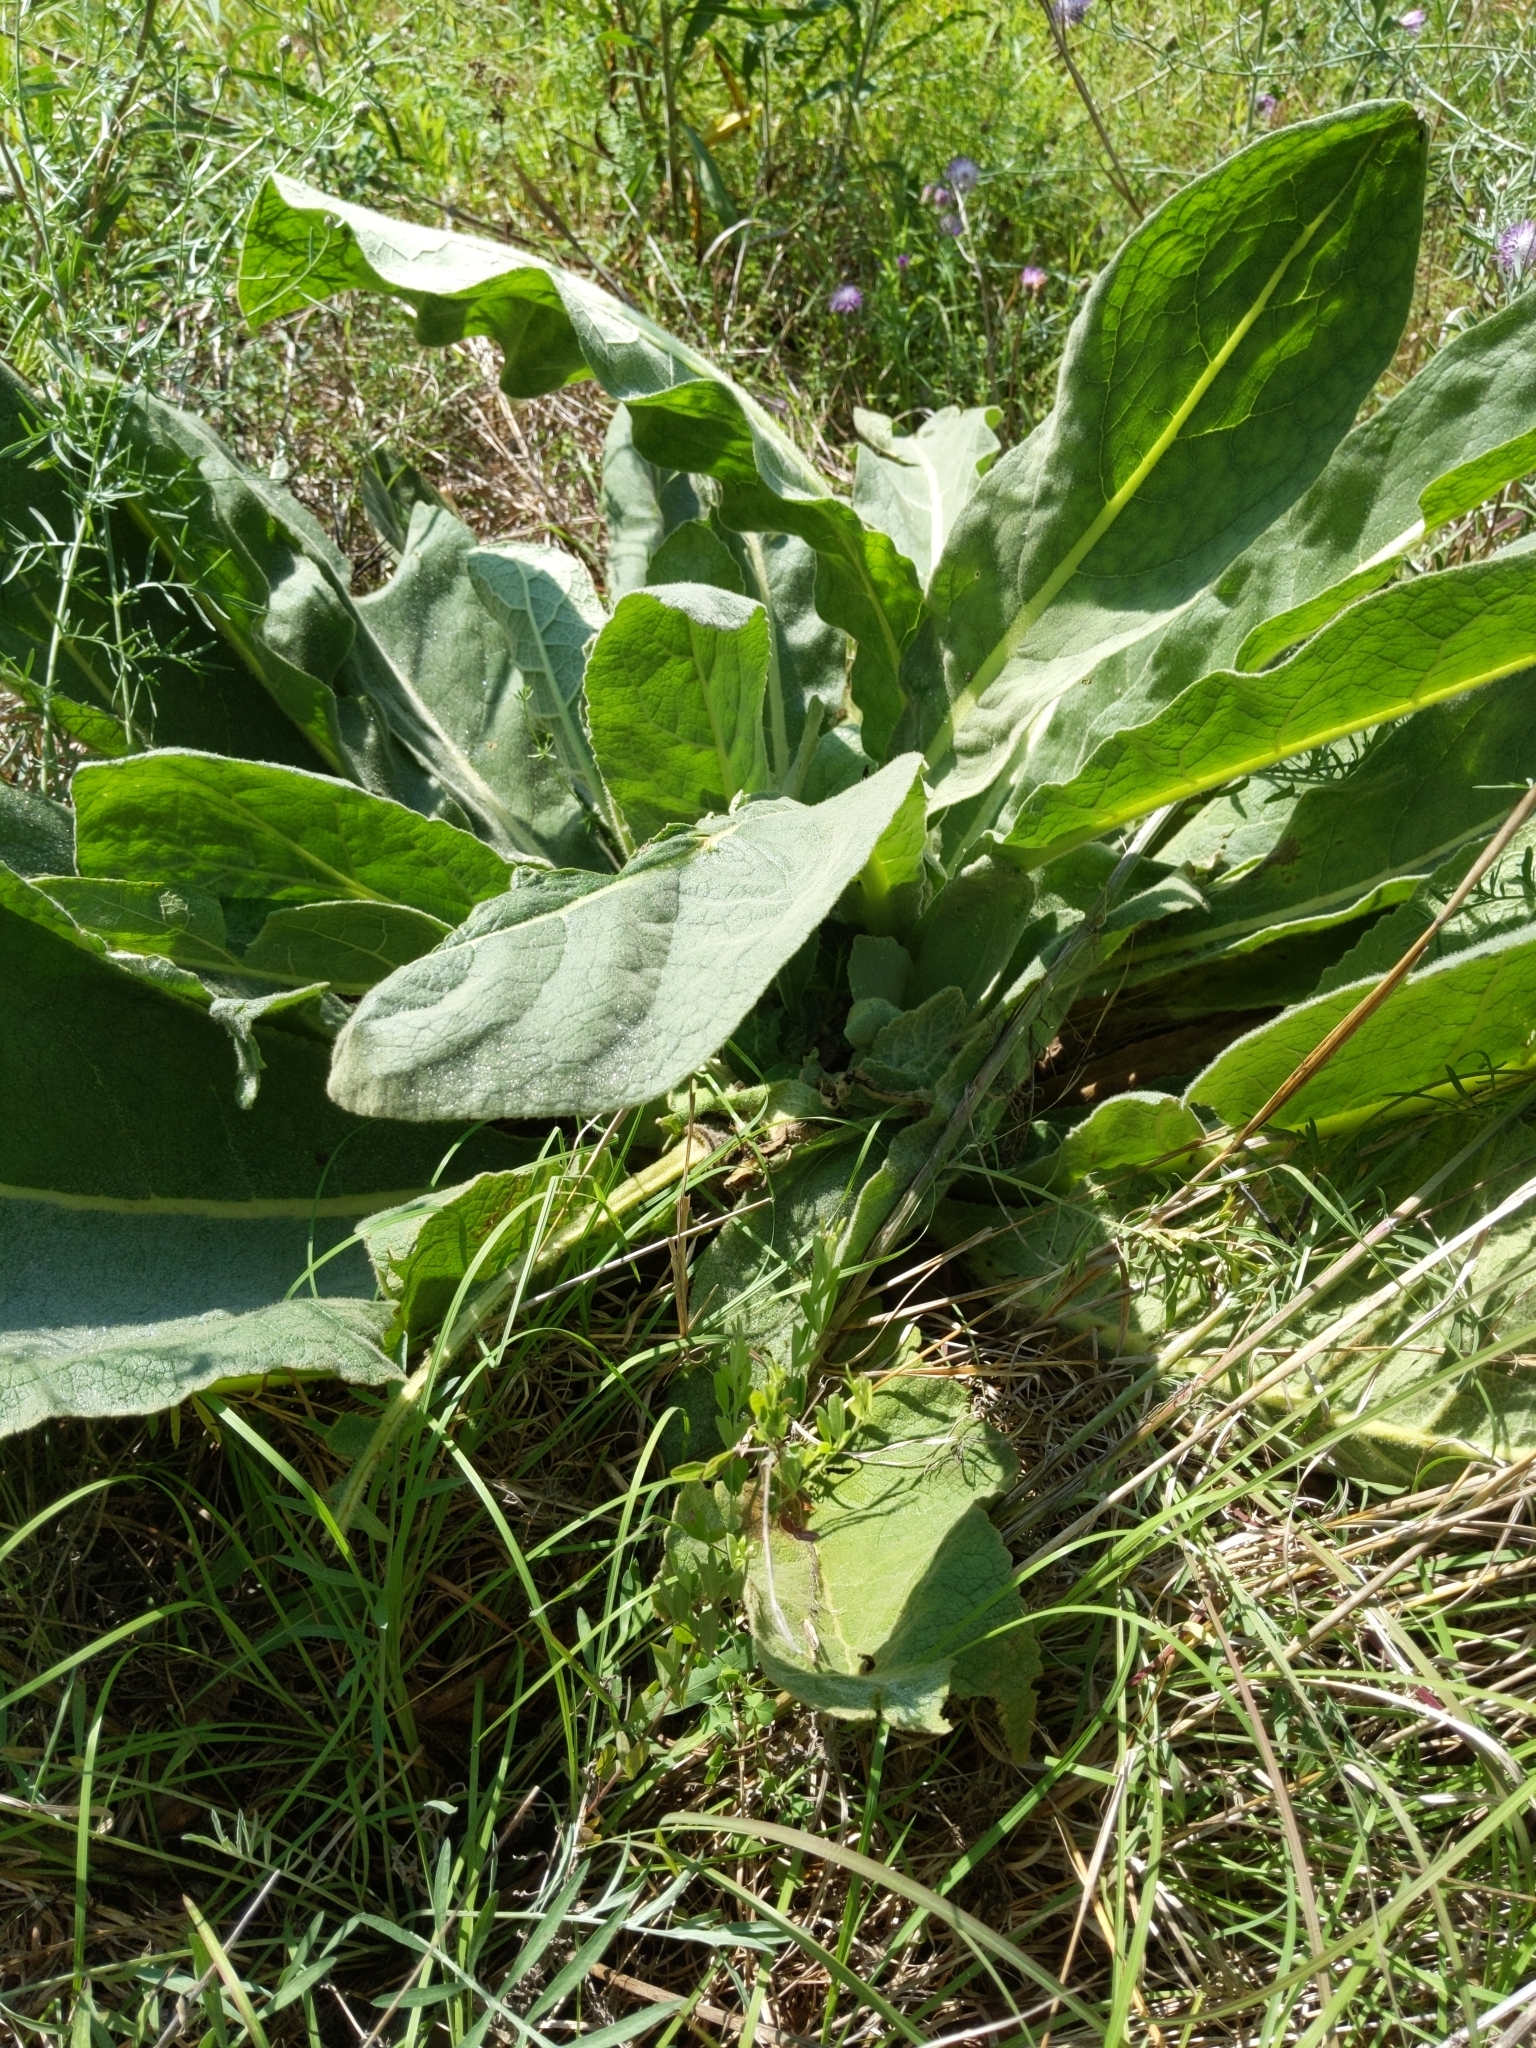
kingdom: Plantae
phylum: Tracheophyta
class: Magnoliopsida
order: Lamiales
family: Scrophulariaceae
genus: Verbascum
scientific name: Verbascum thapsus
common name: Common mullein
